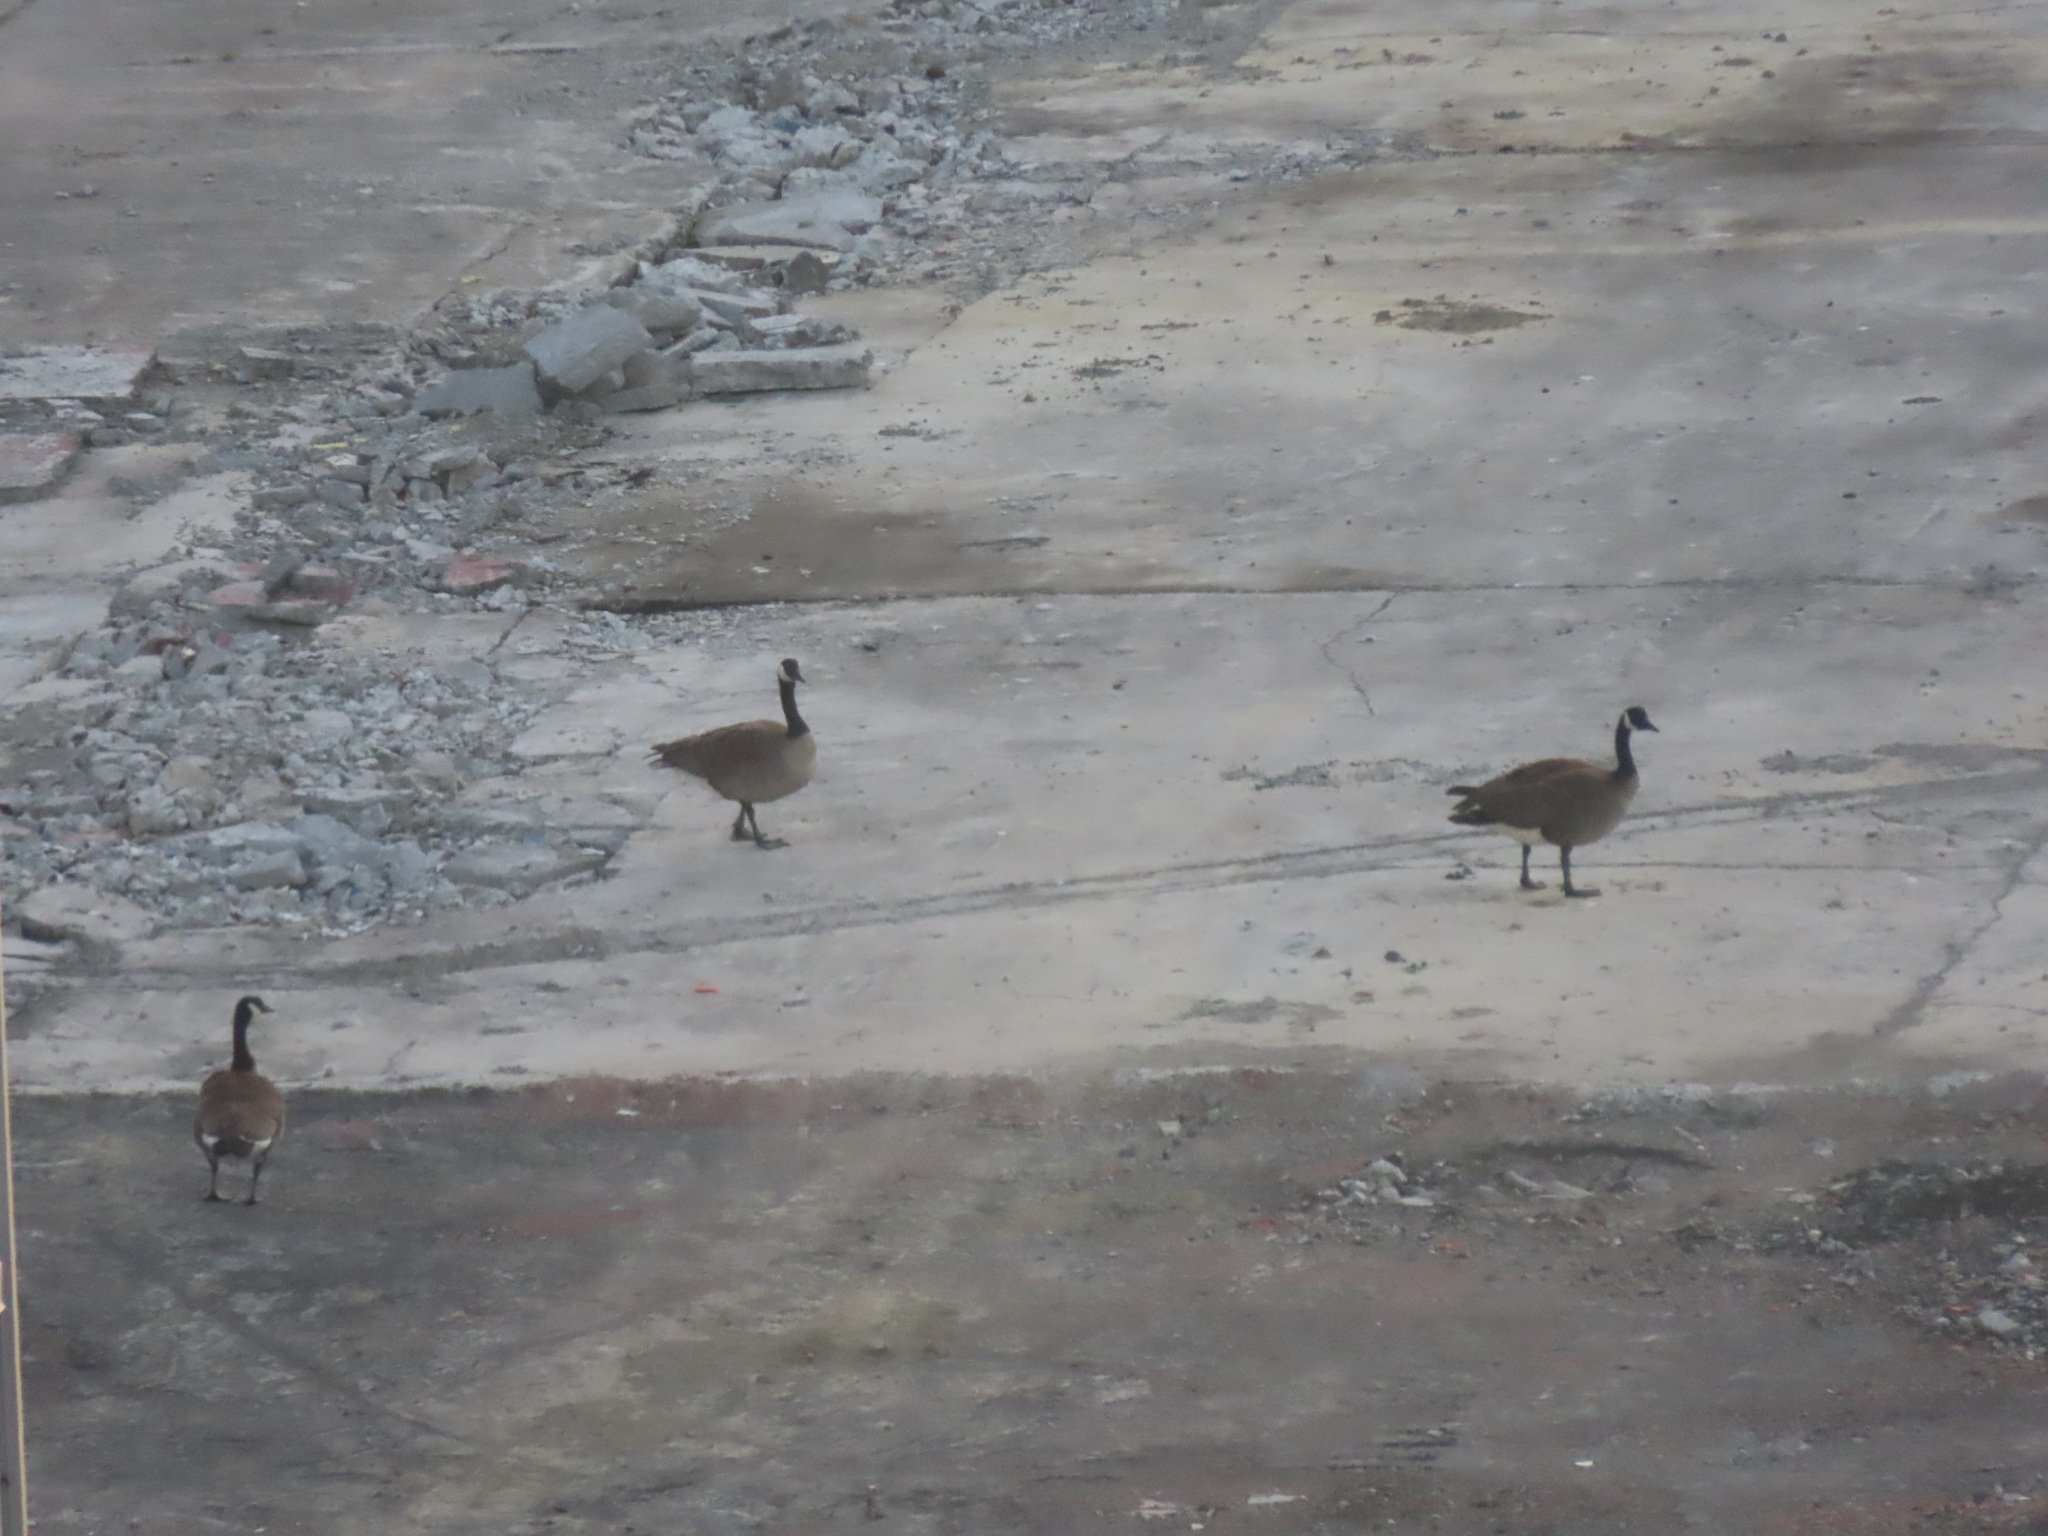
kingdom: Animalia
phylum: Chordata
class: Aves
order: Anseriformes
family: Anatidae
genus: Branta
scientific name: Branta canadensis
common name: Canada goose
